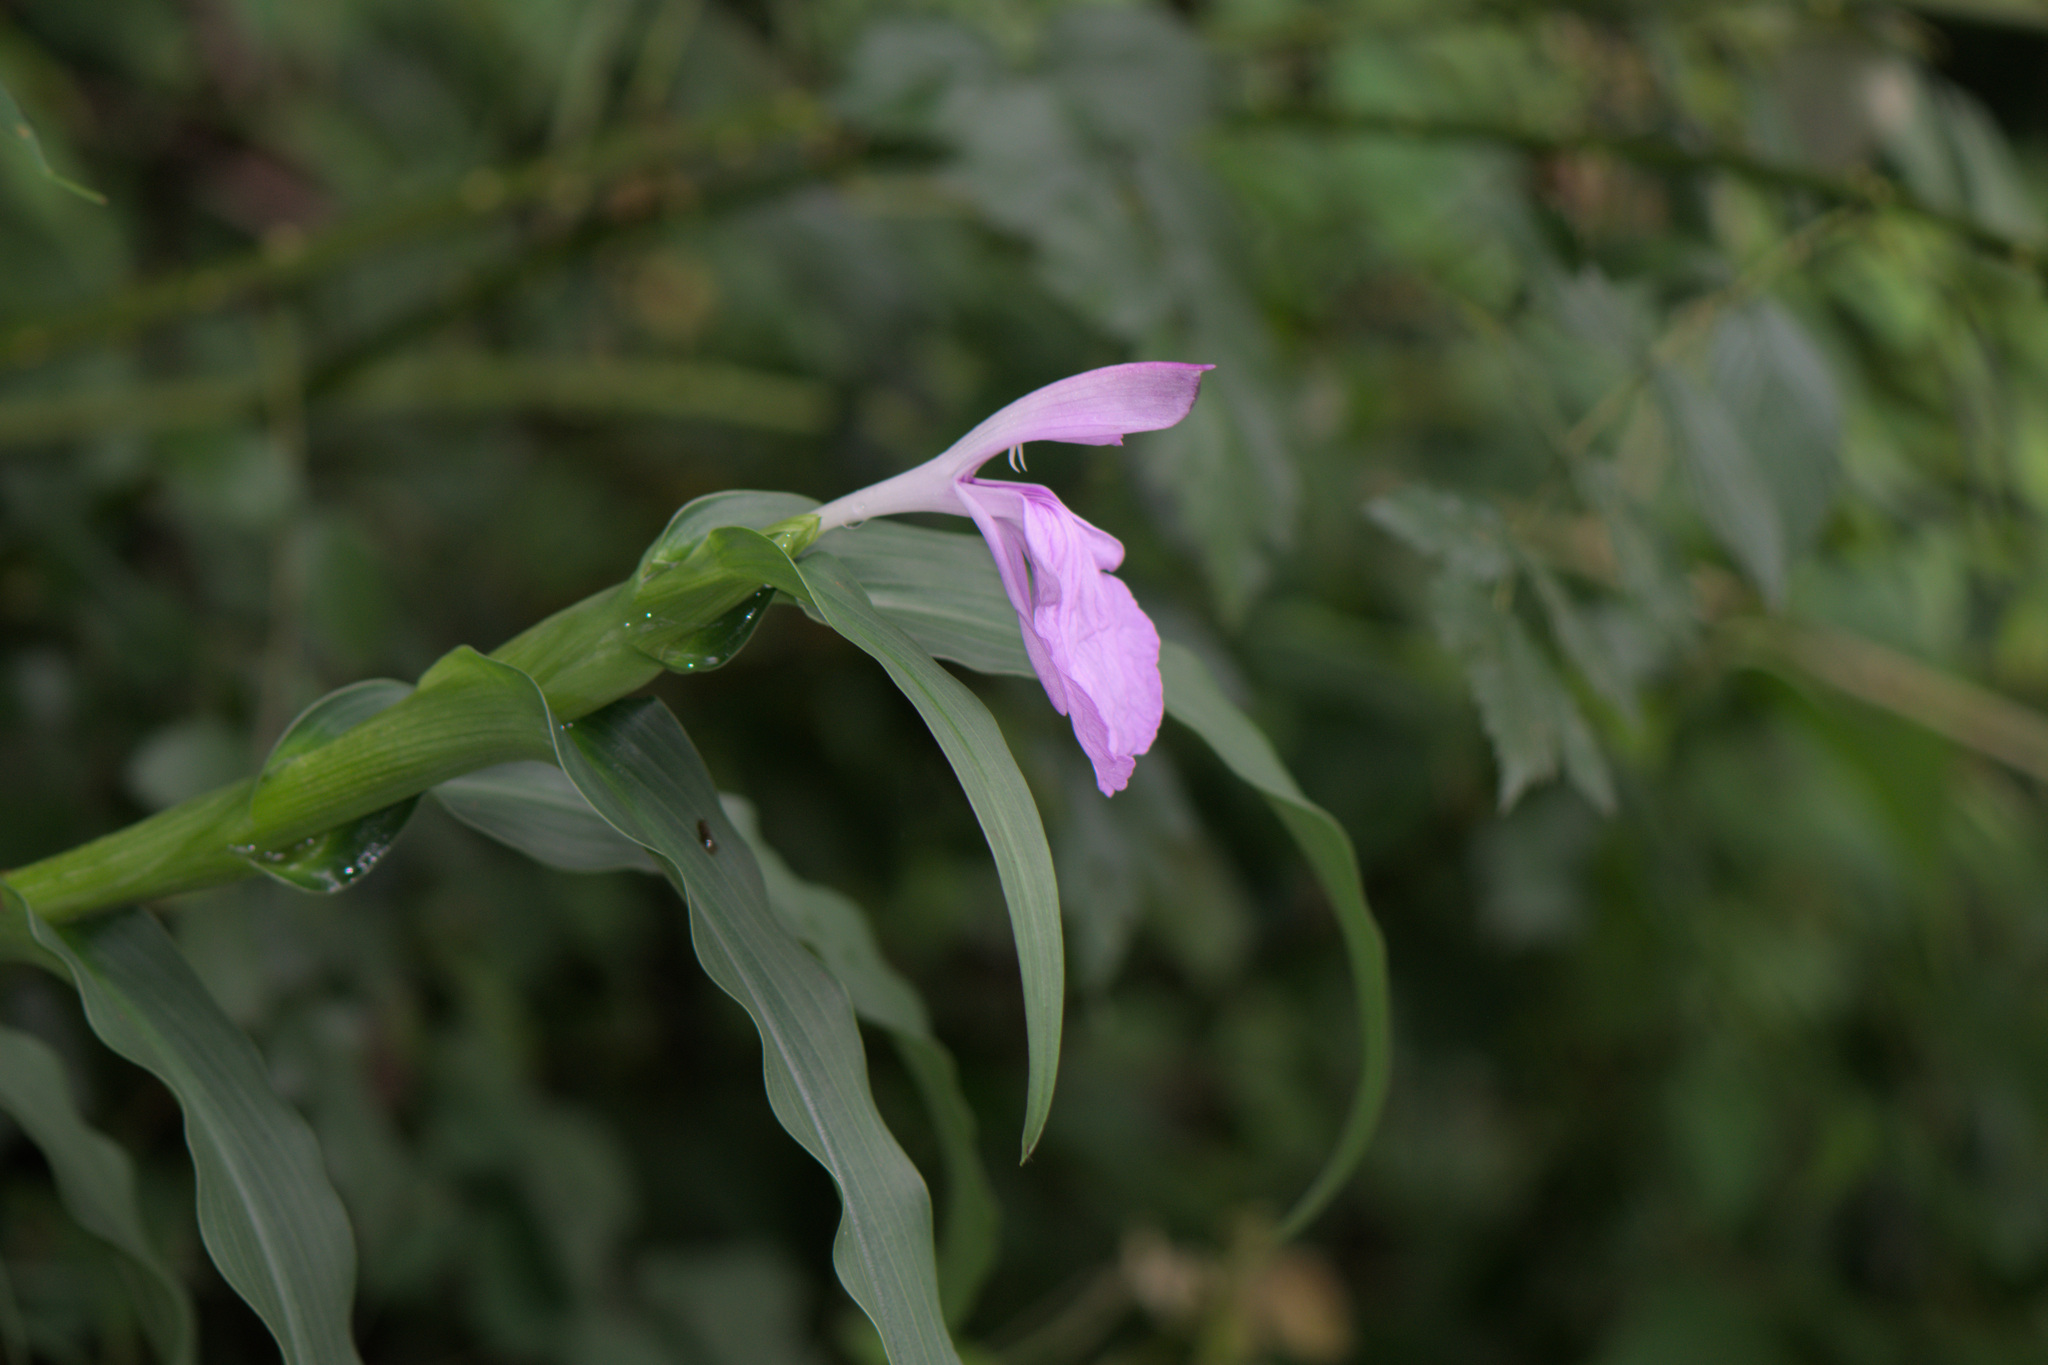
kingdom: Plantae
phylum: Tracheophyta
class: Liliopsida
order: Zingiberales
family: Zingiberaceae
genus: Roscoea
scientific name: Roscoea purpurea
